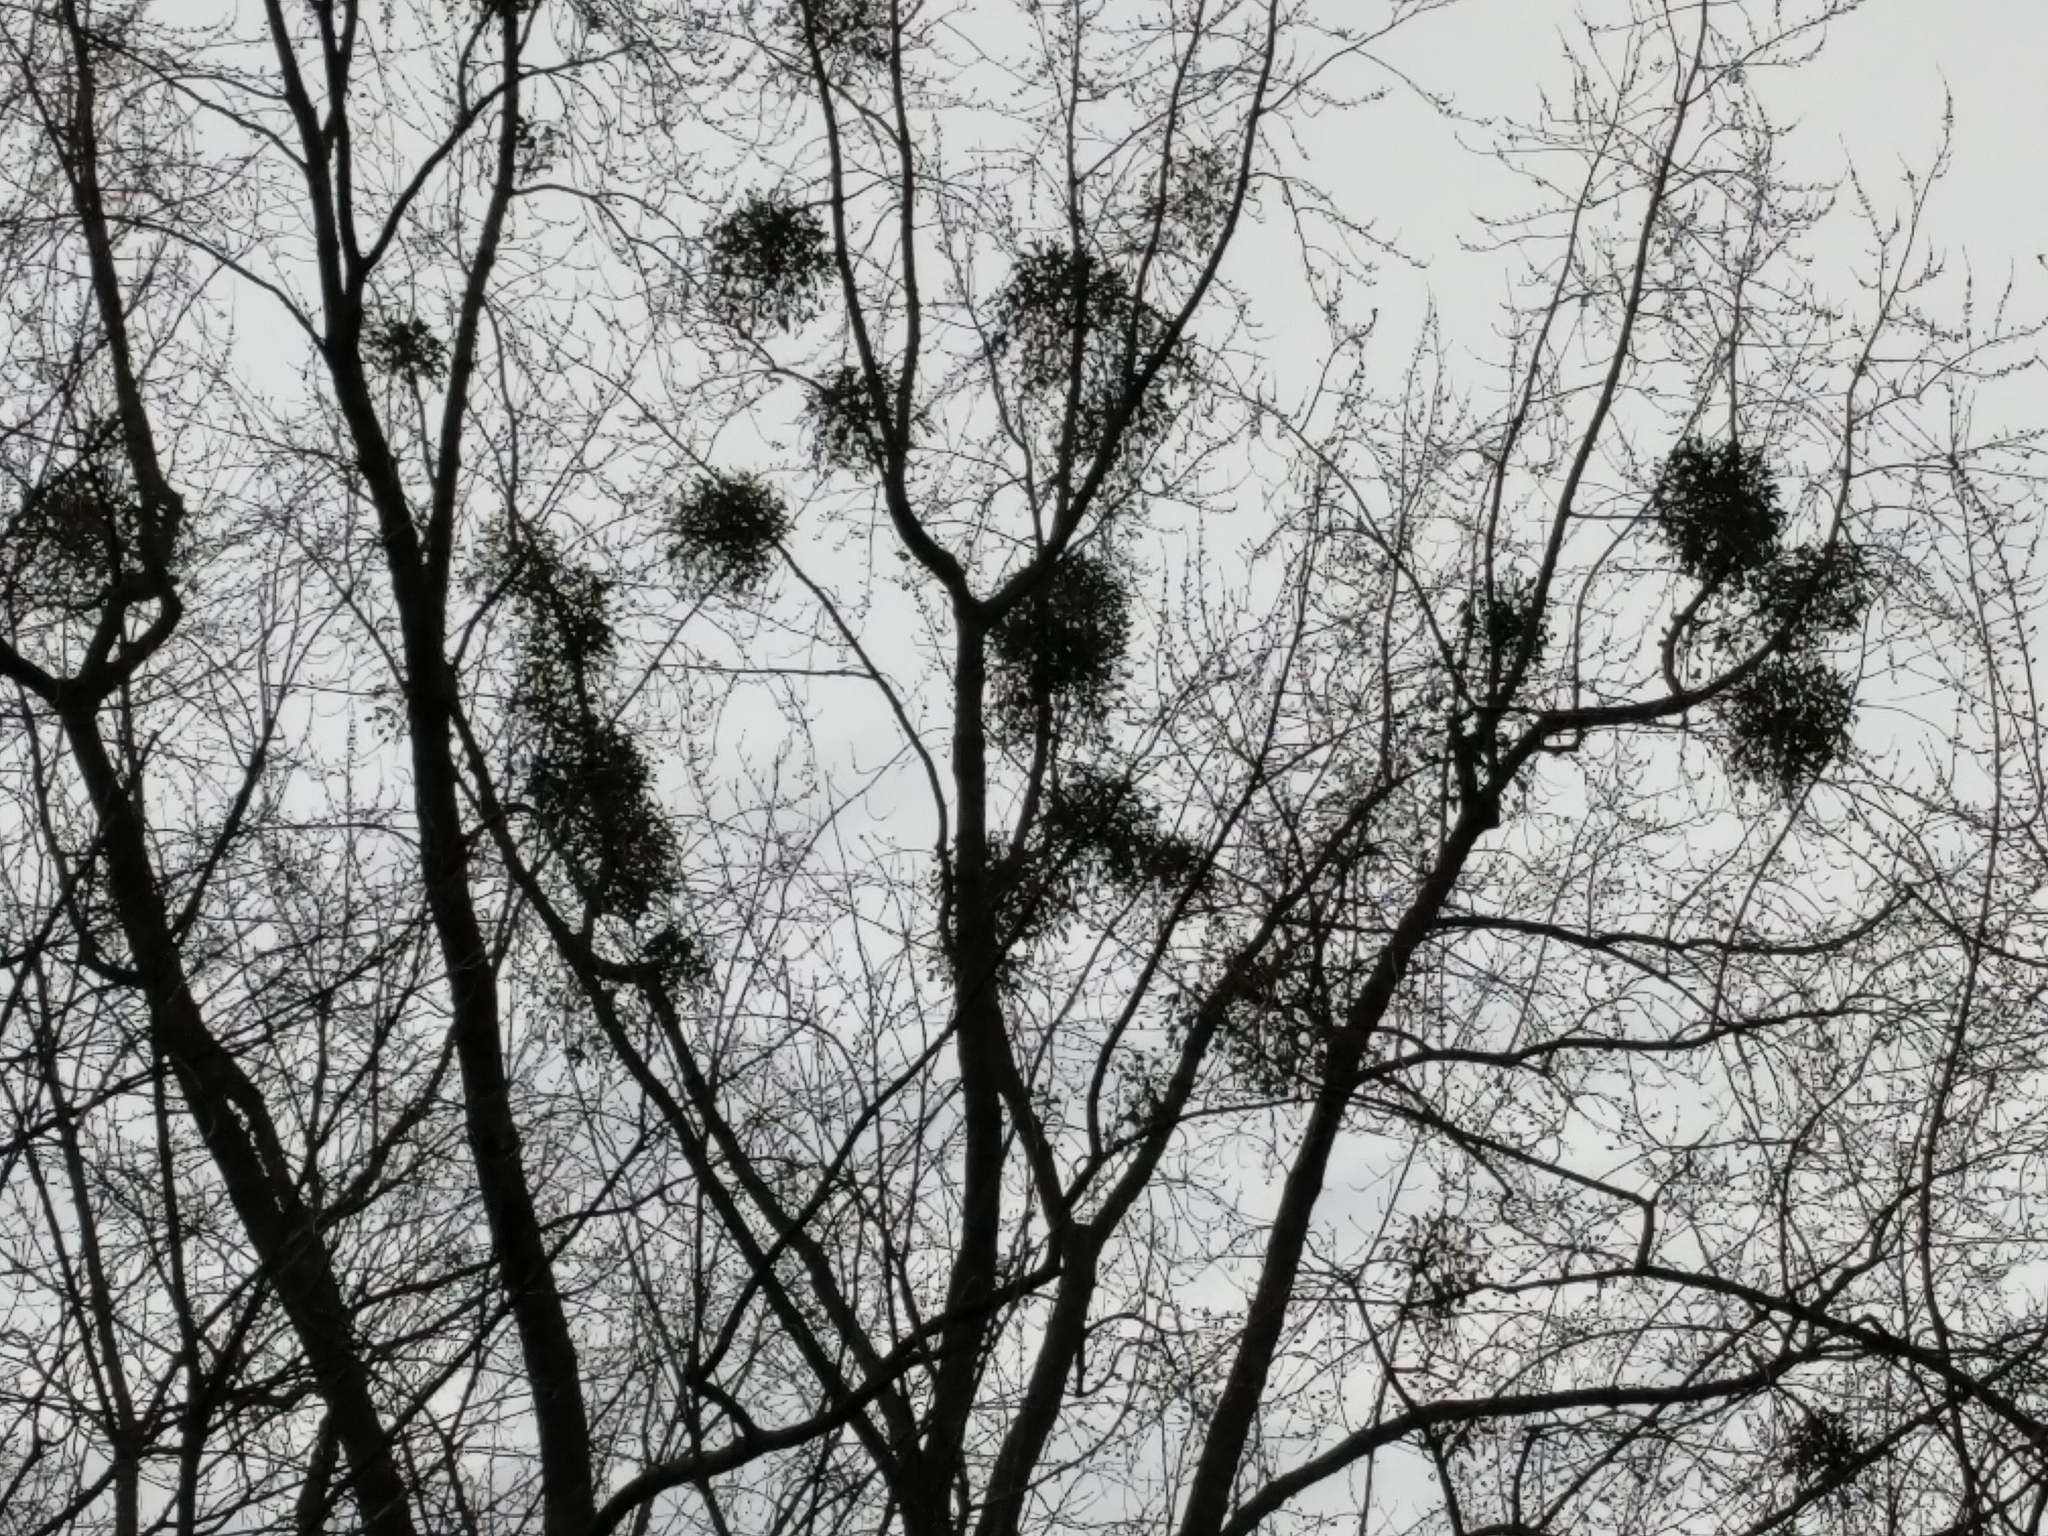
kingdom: Plantae
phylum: Tracheophyta
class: Magnoliopsida
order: Santalales
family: Viscaceae
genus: Viscum
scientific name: Viscum album
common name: Mistletoe
